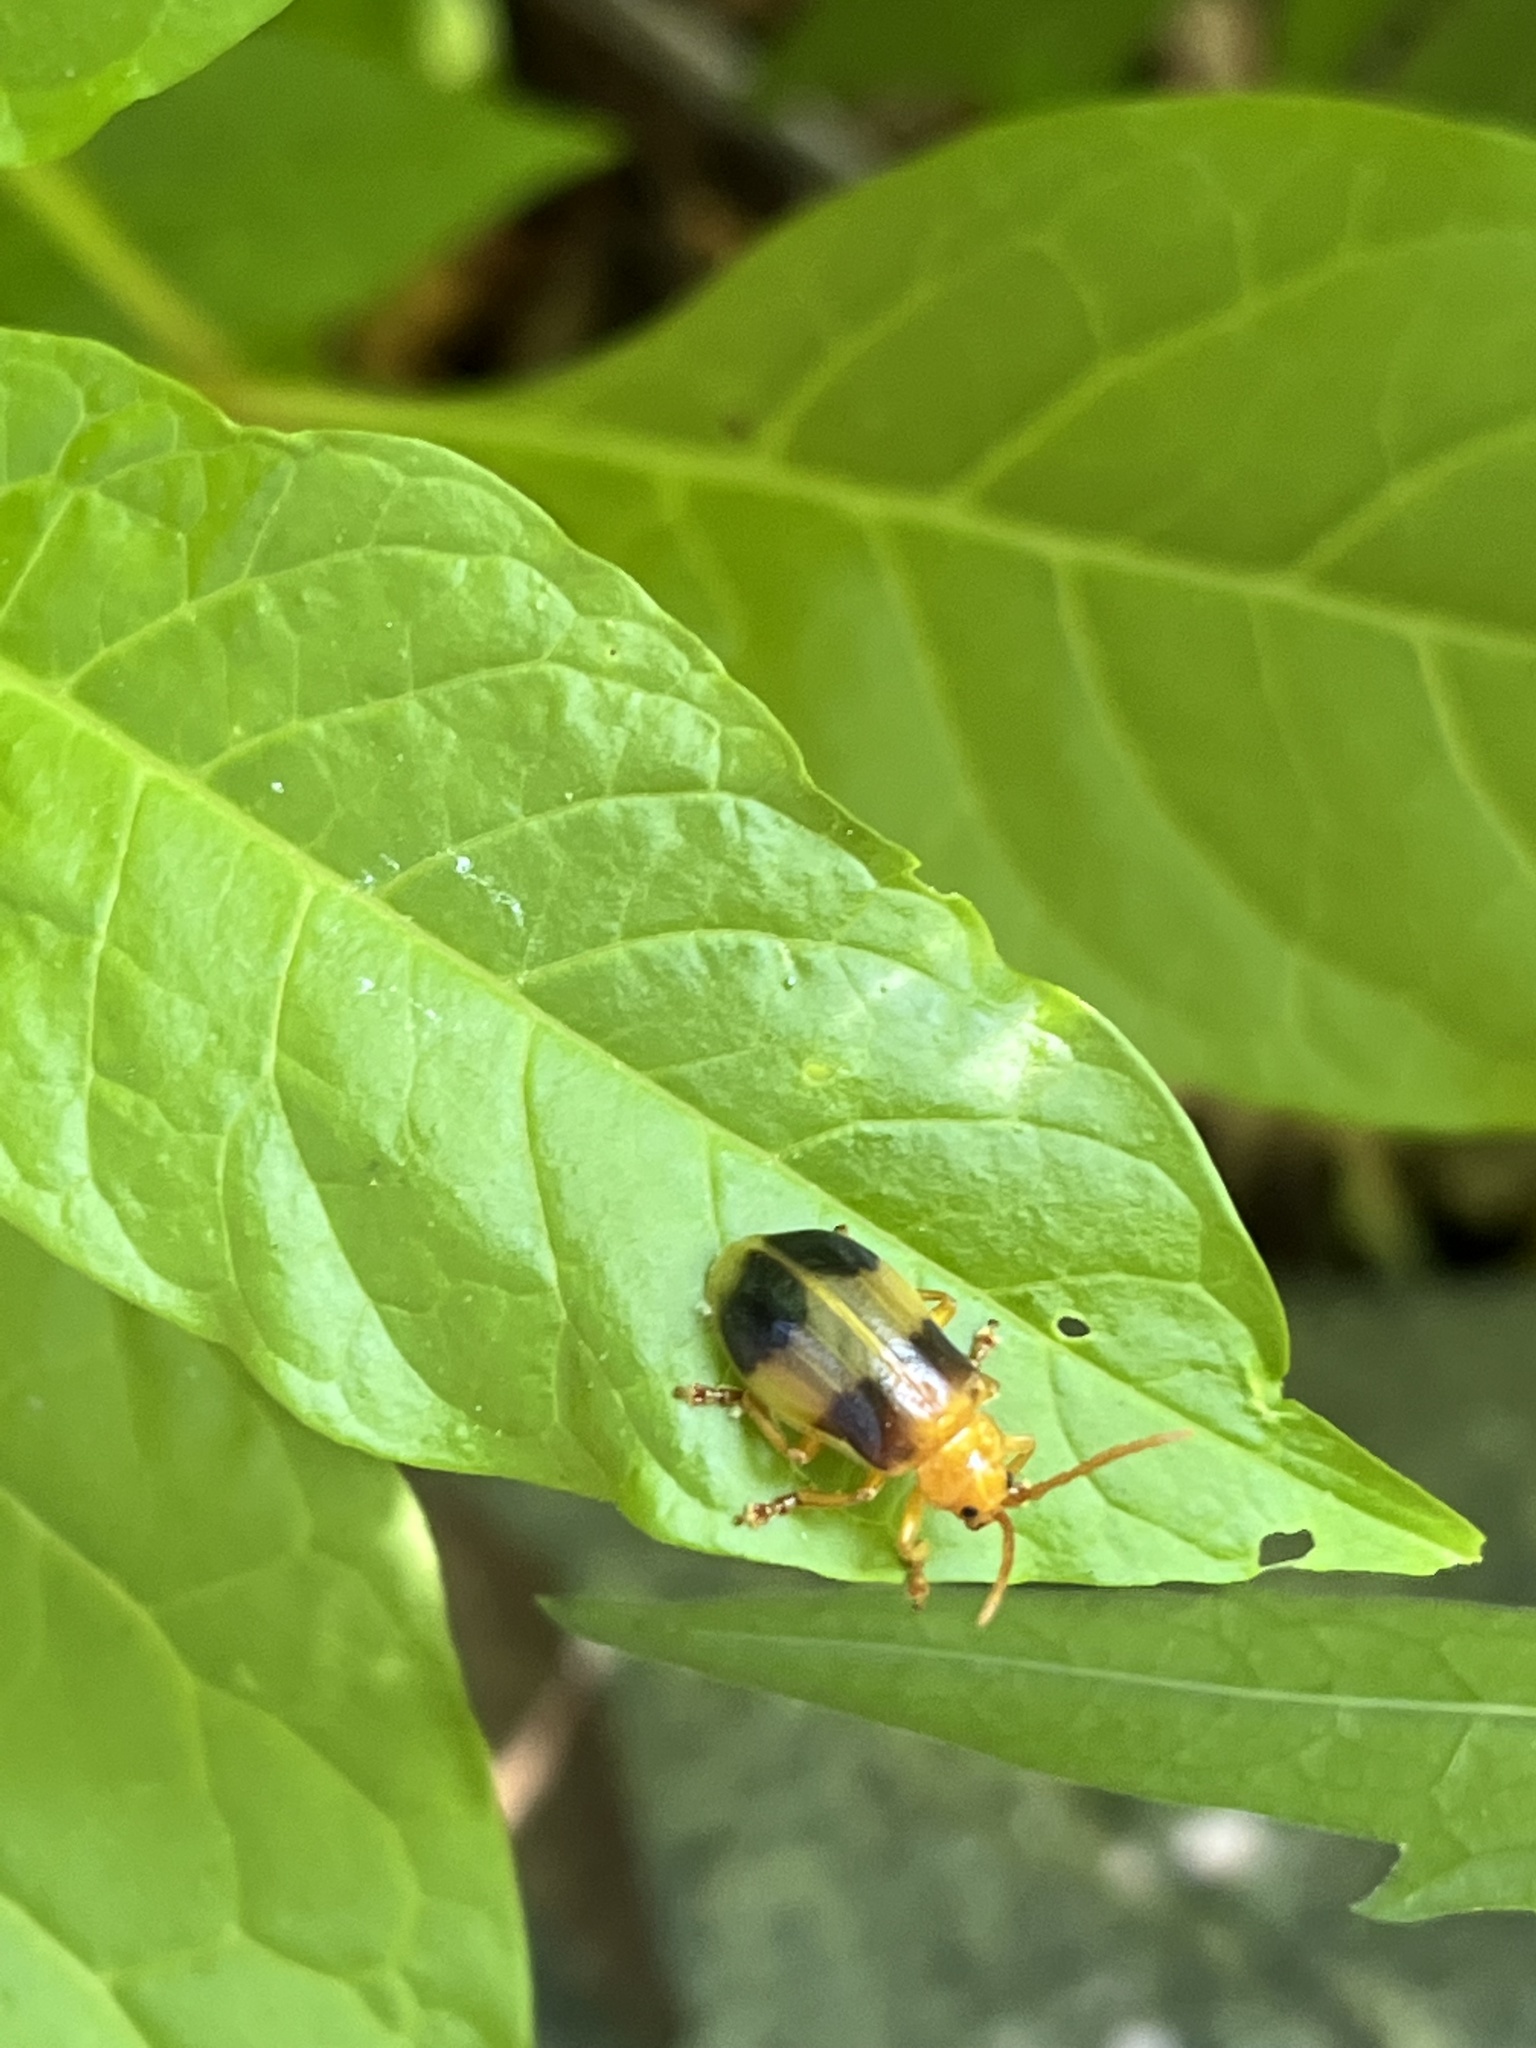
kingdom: Animalia
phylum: Arthropoda
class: Insecta
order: Coleoptera
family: Chrysomelidae
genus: Monocesta
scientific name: Monocesta coryli
